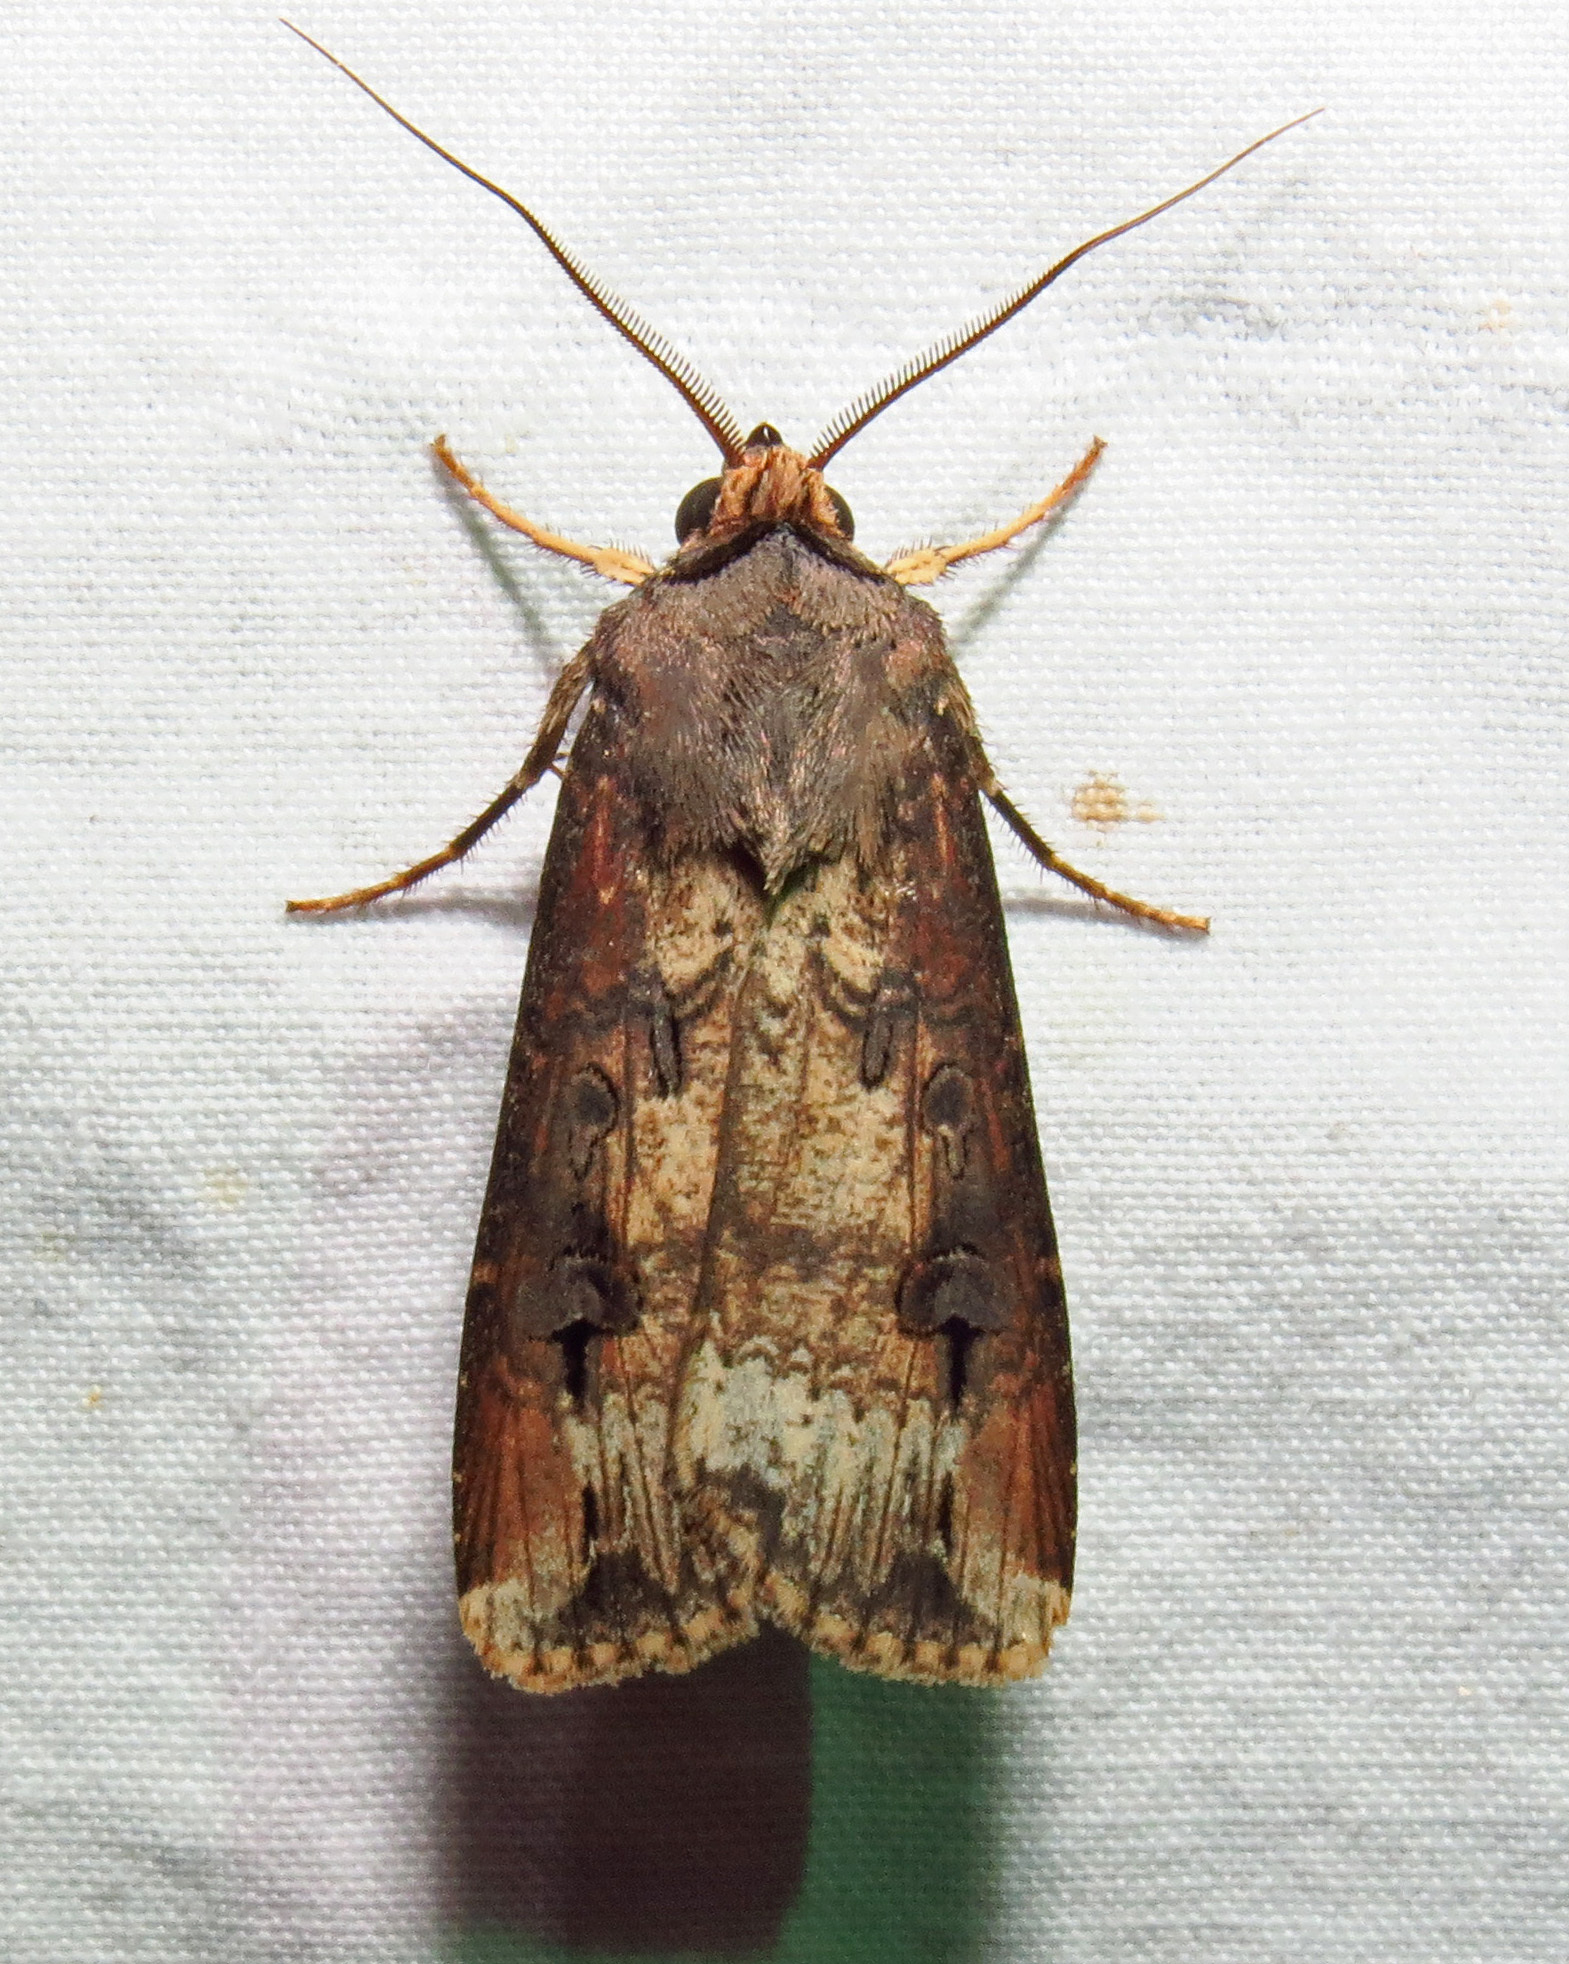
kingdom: Animalia
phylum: Arthropoda
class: Insecta
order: Lepidoptera
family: Noctuidae
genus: Agrotis
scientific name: Agrotis ipsilon
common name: Dark sword-grass
